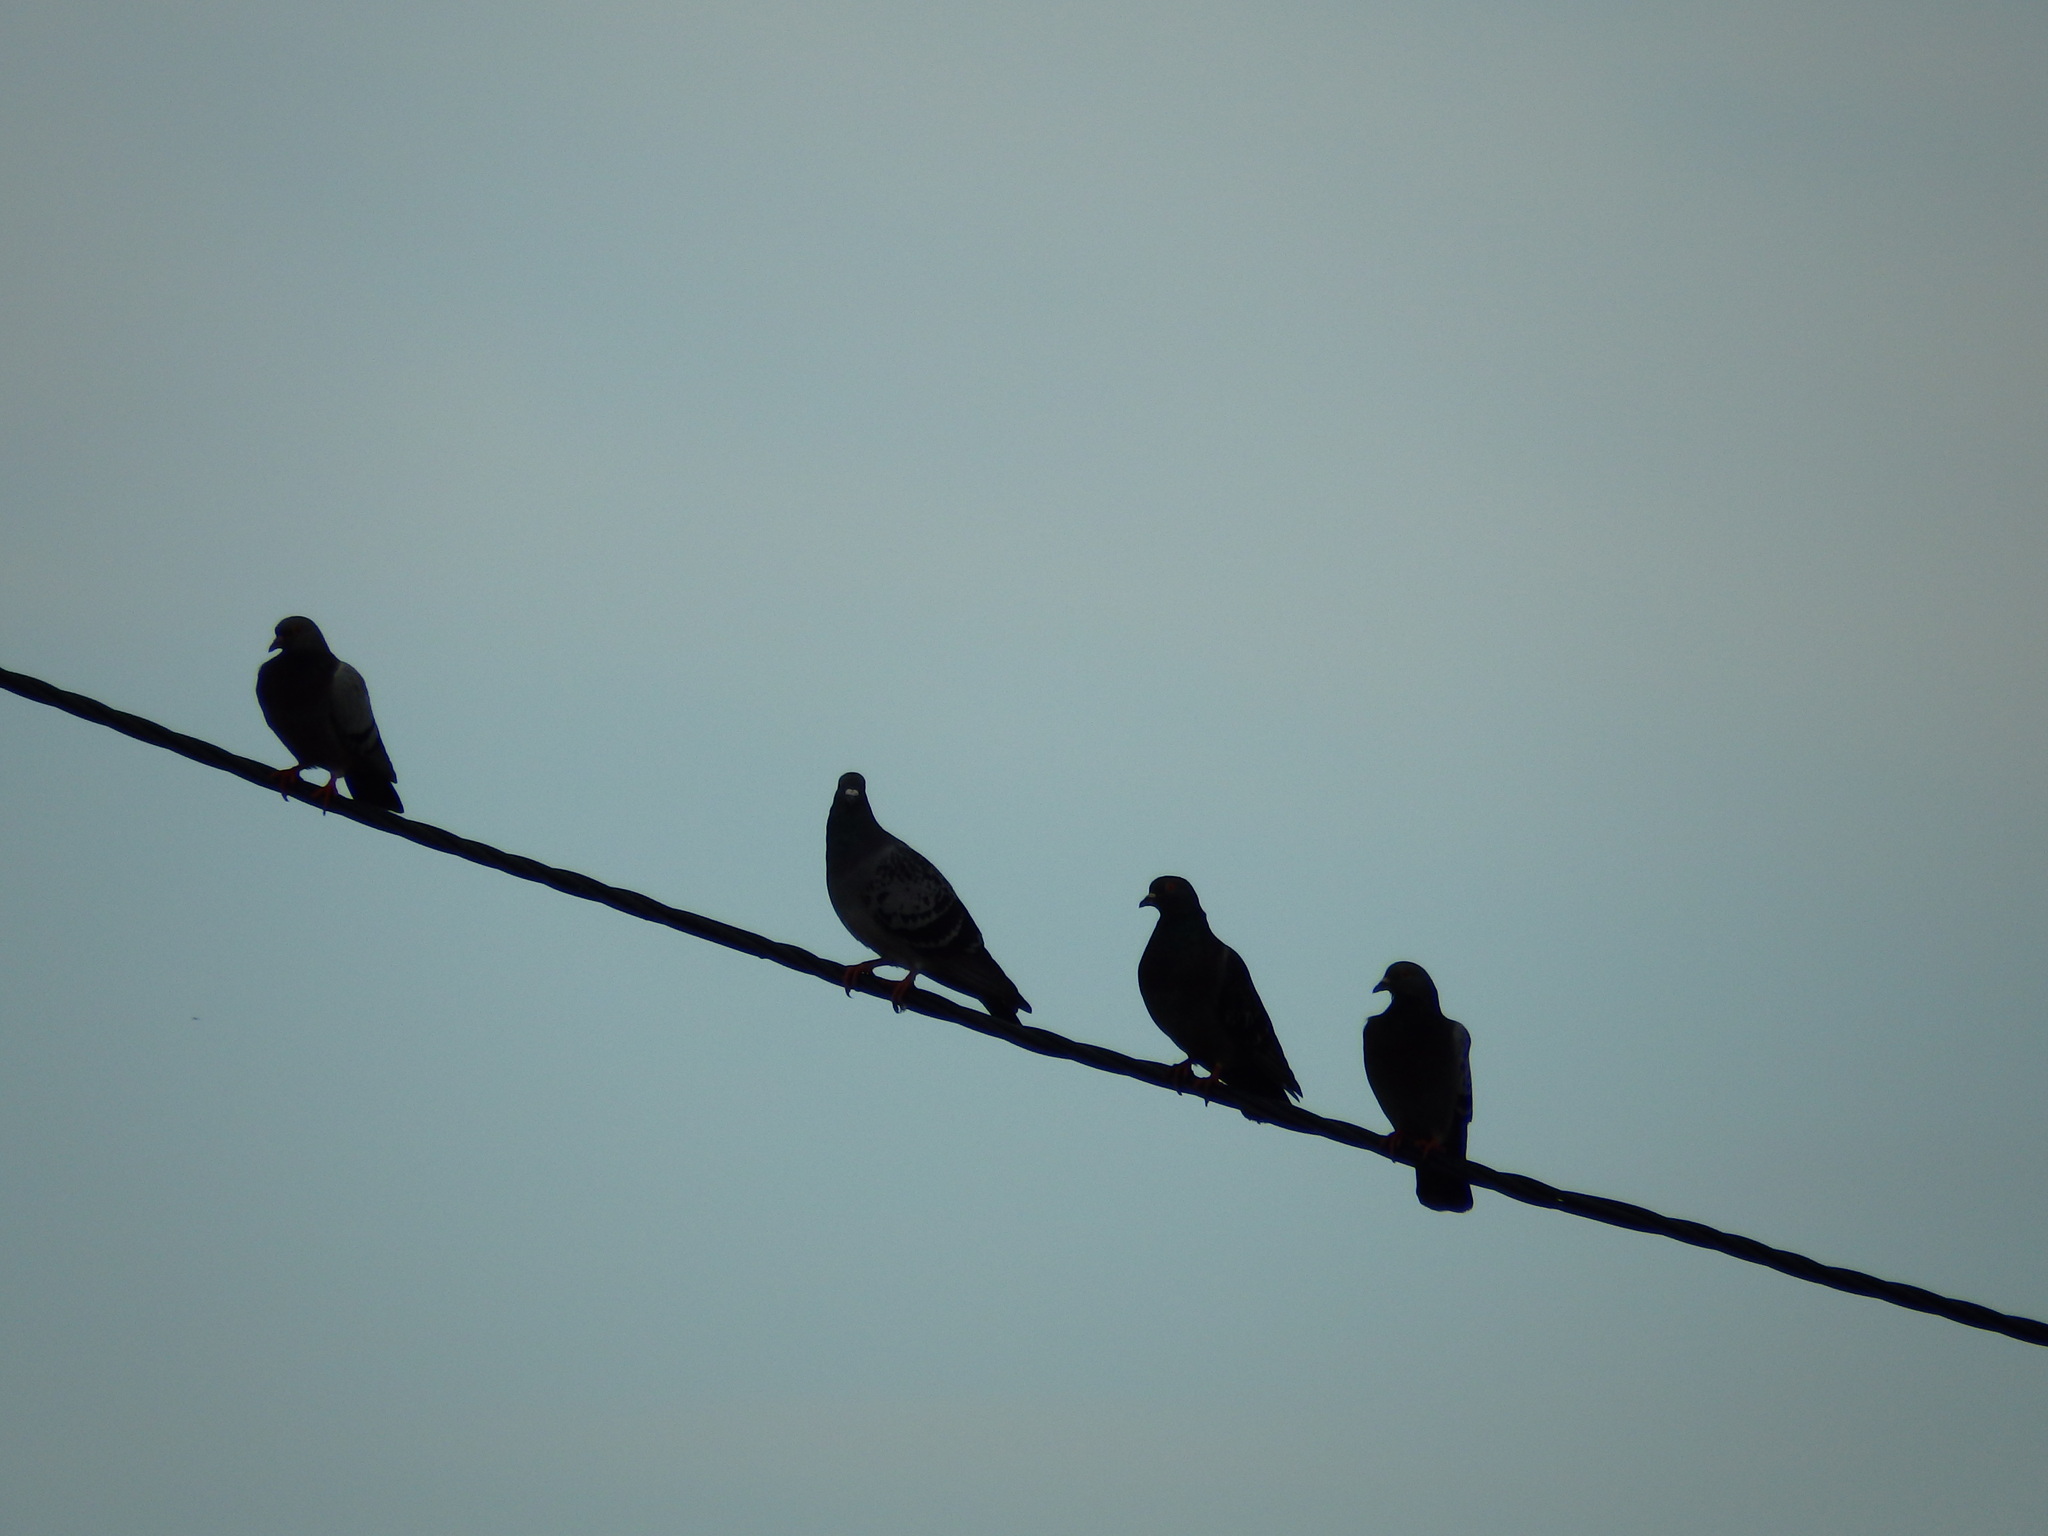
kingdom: Animalia
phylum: Chordata
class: Aves
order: Columbiformes
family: Columbidae
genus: Columba
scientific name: Columba livia
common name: Rock pigeon
